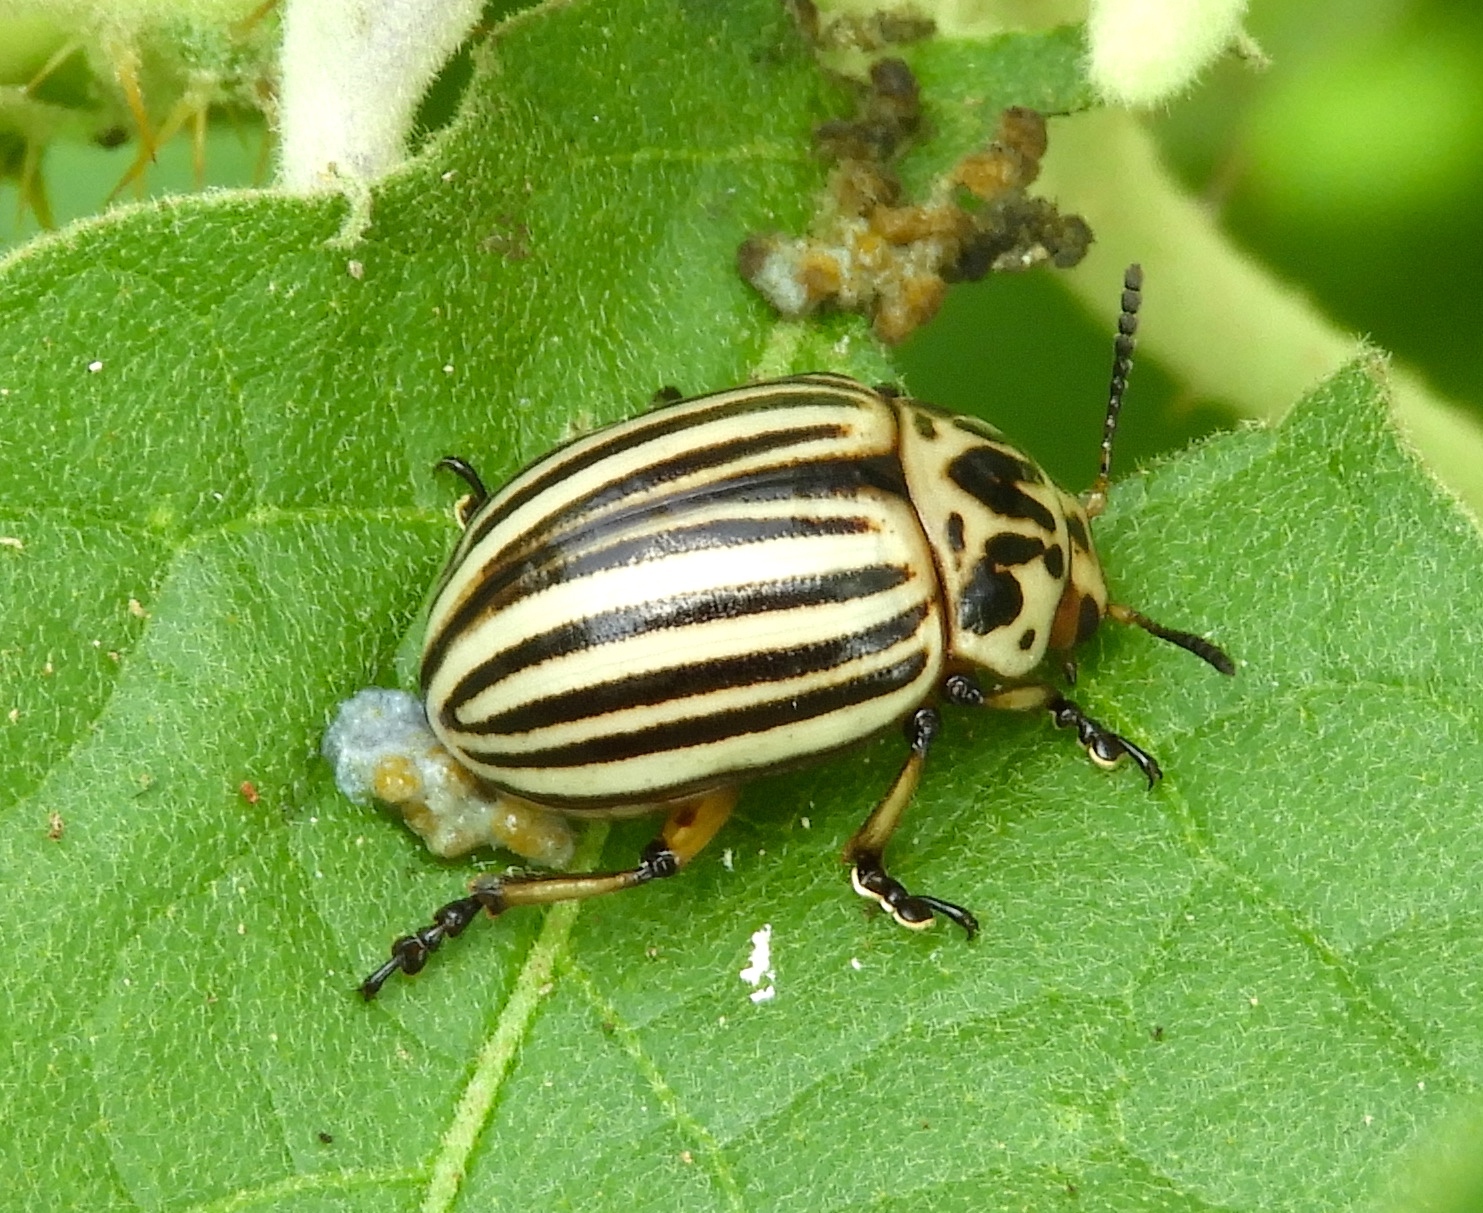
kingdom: Animalia
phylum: Arthropoda
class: Insecta
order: Coleoptera
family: Chrysomelidae
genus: Leptinotarsa
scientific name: Leptinotarsa
